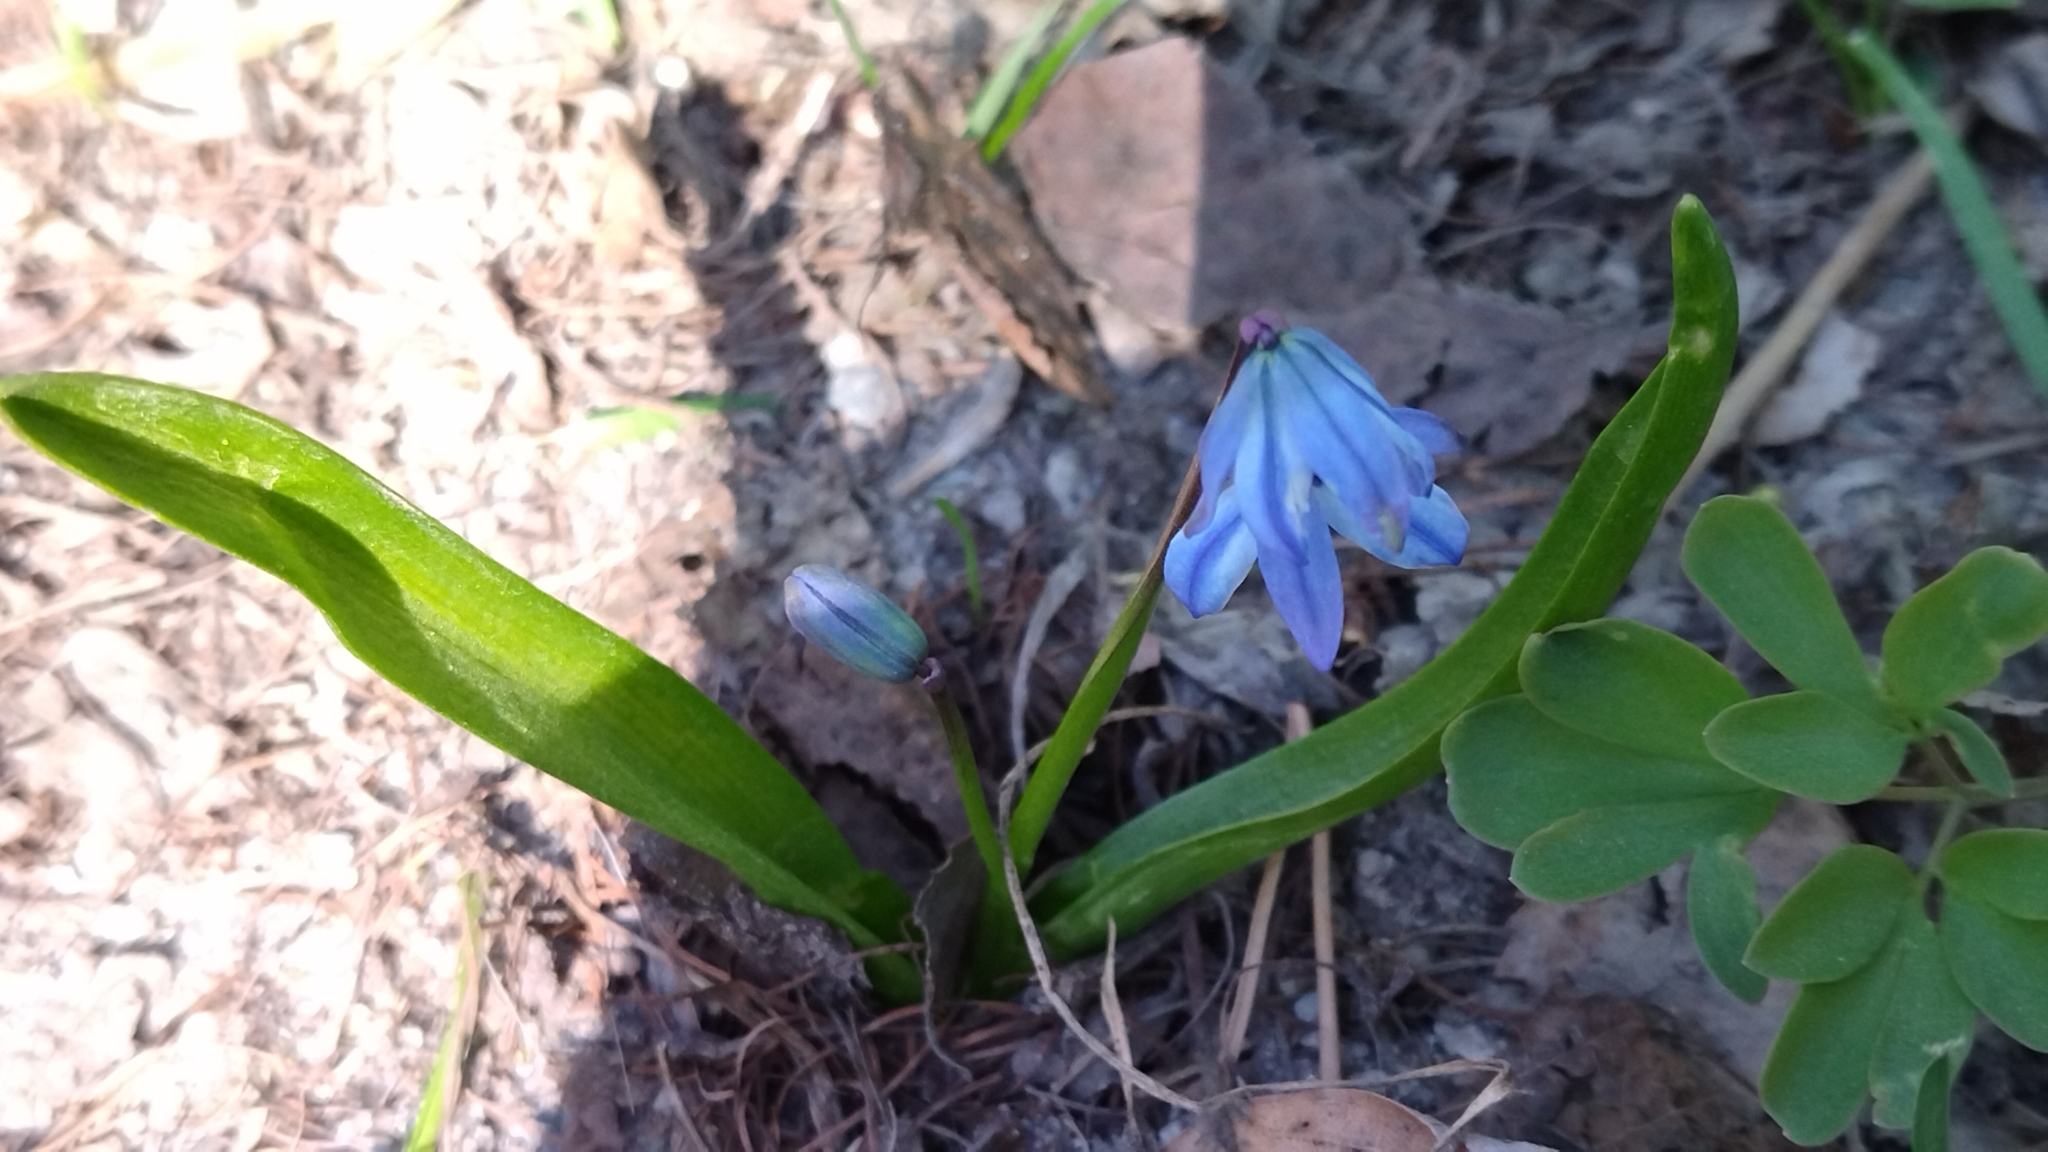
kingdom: Plantae
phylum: Tracheophyta
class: Liliopsida
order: Asparagales
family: Asparagaceae
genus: Scilla
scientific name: Scilla siberica
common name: Siberian squill
